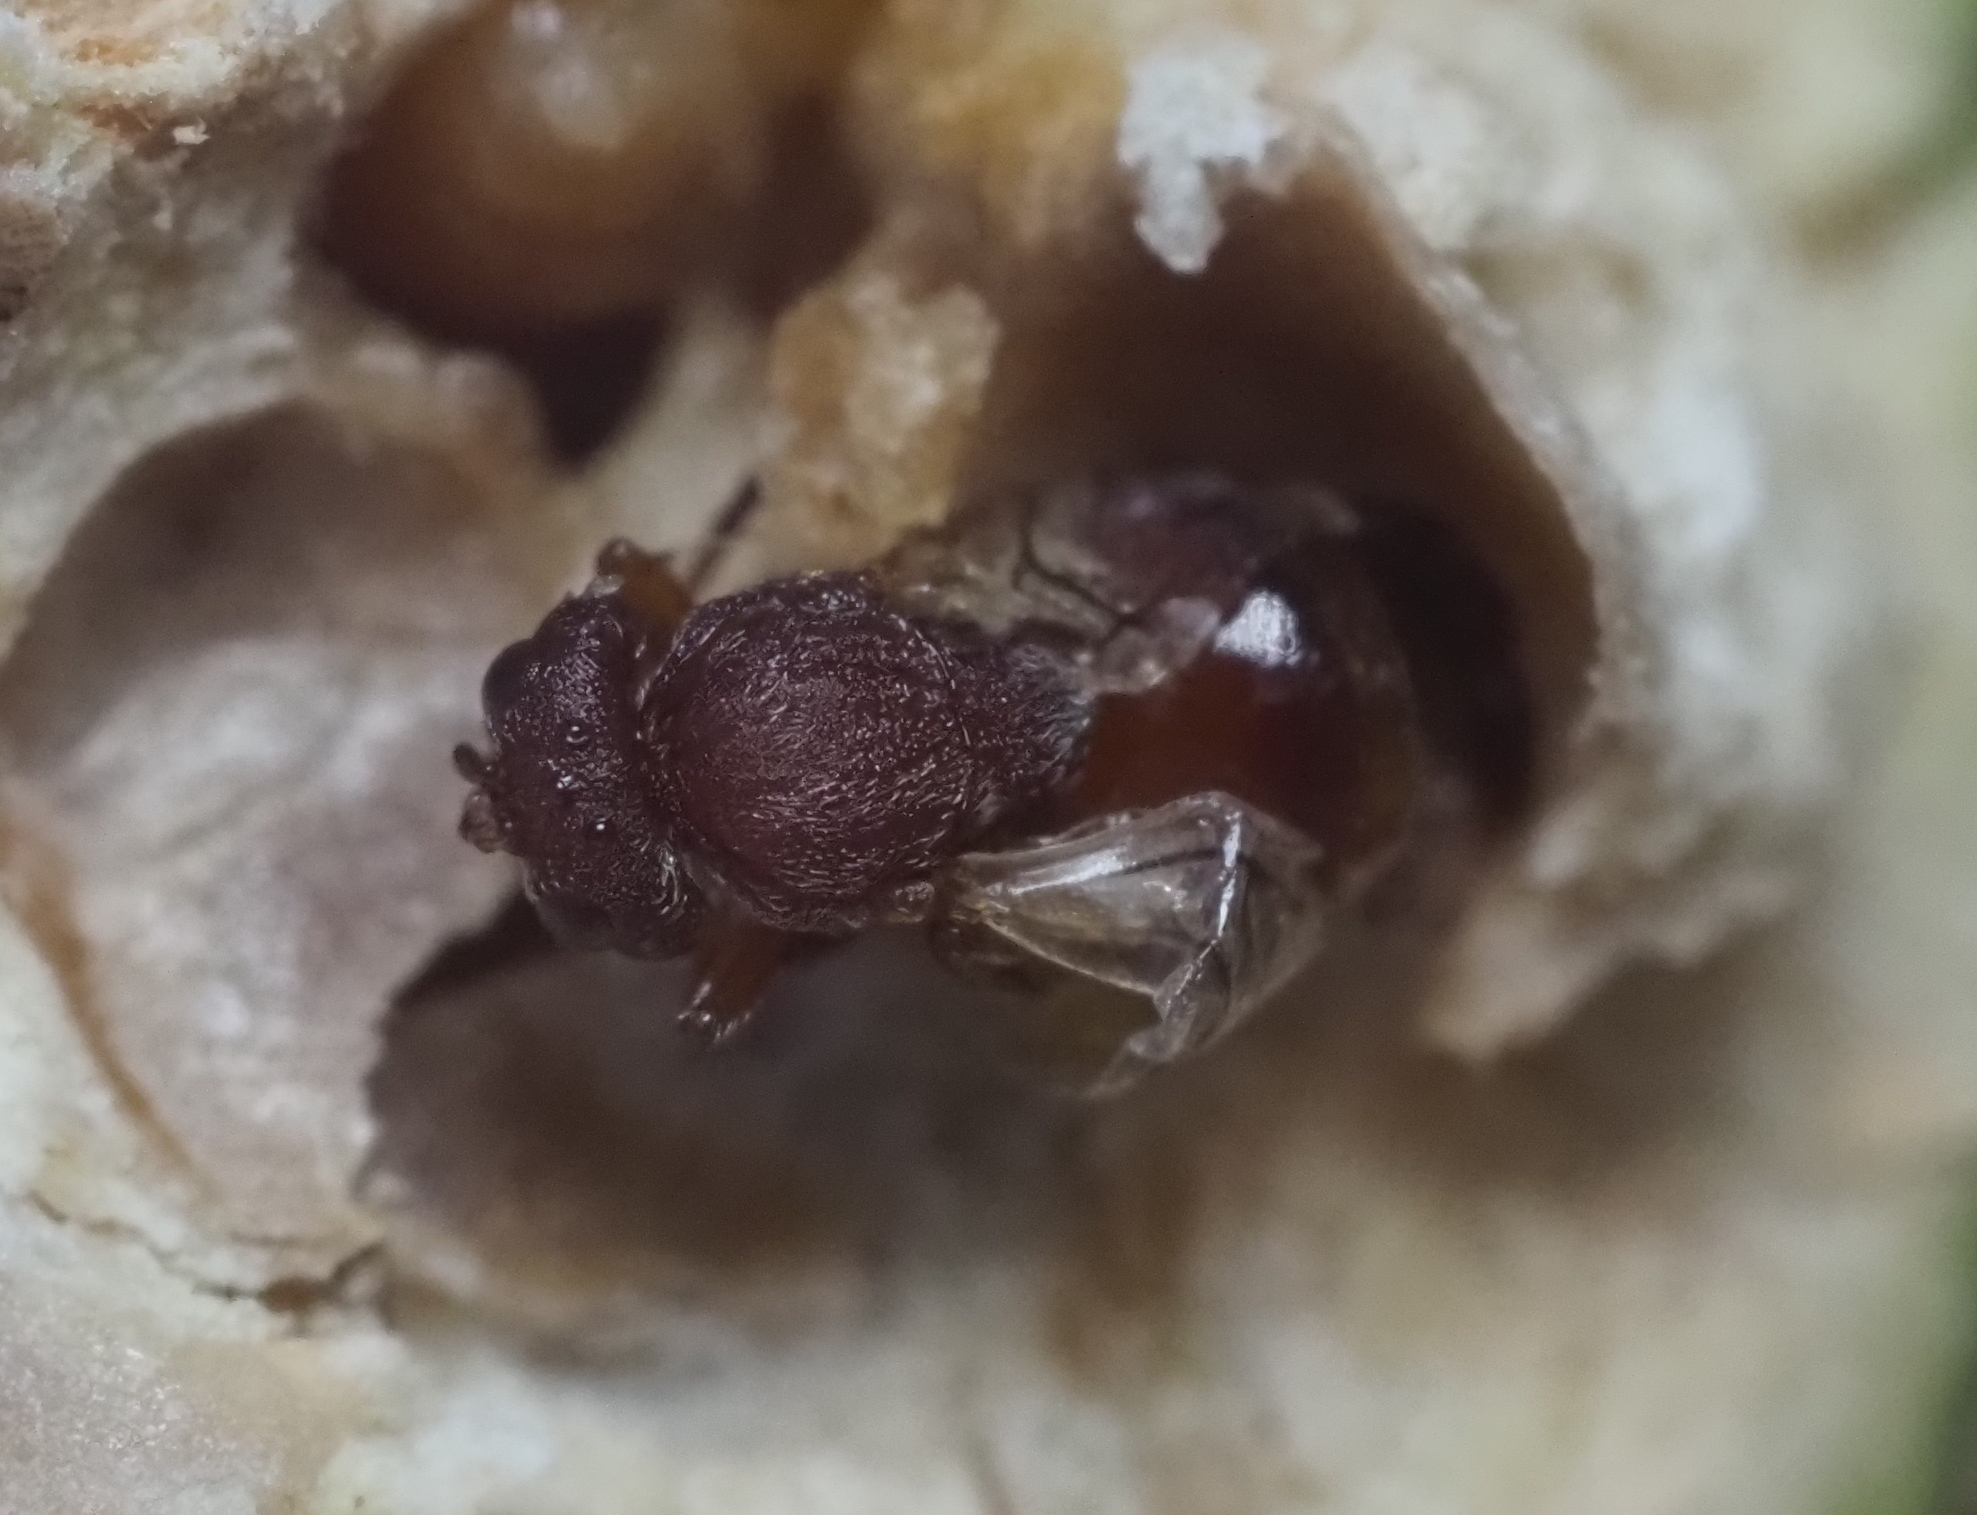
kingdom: Animalia
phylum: Arthropoda
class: Insecta
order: Hymenoptera
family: Cynipidae
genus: Callirhytis
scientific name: Callirhytis
